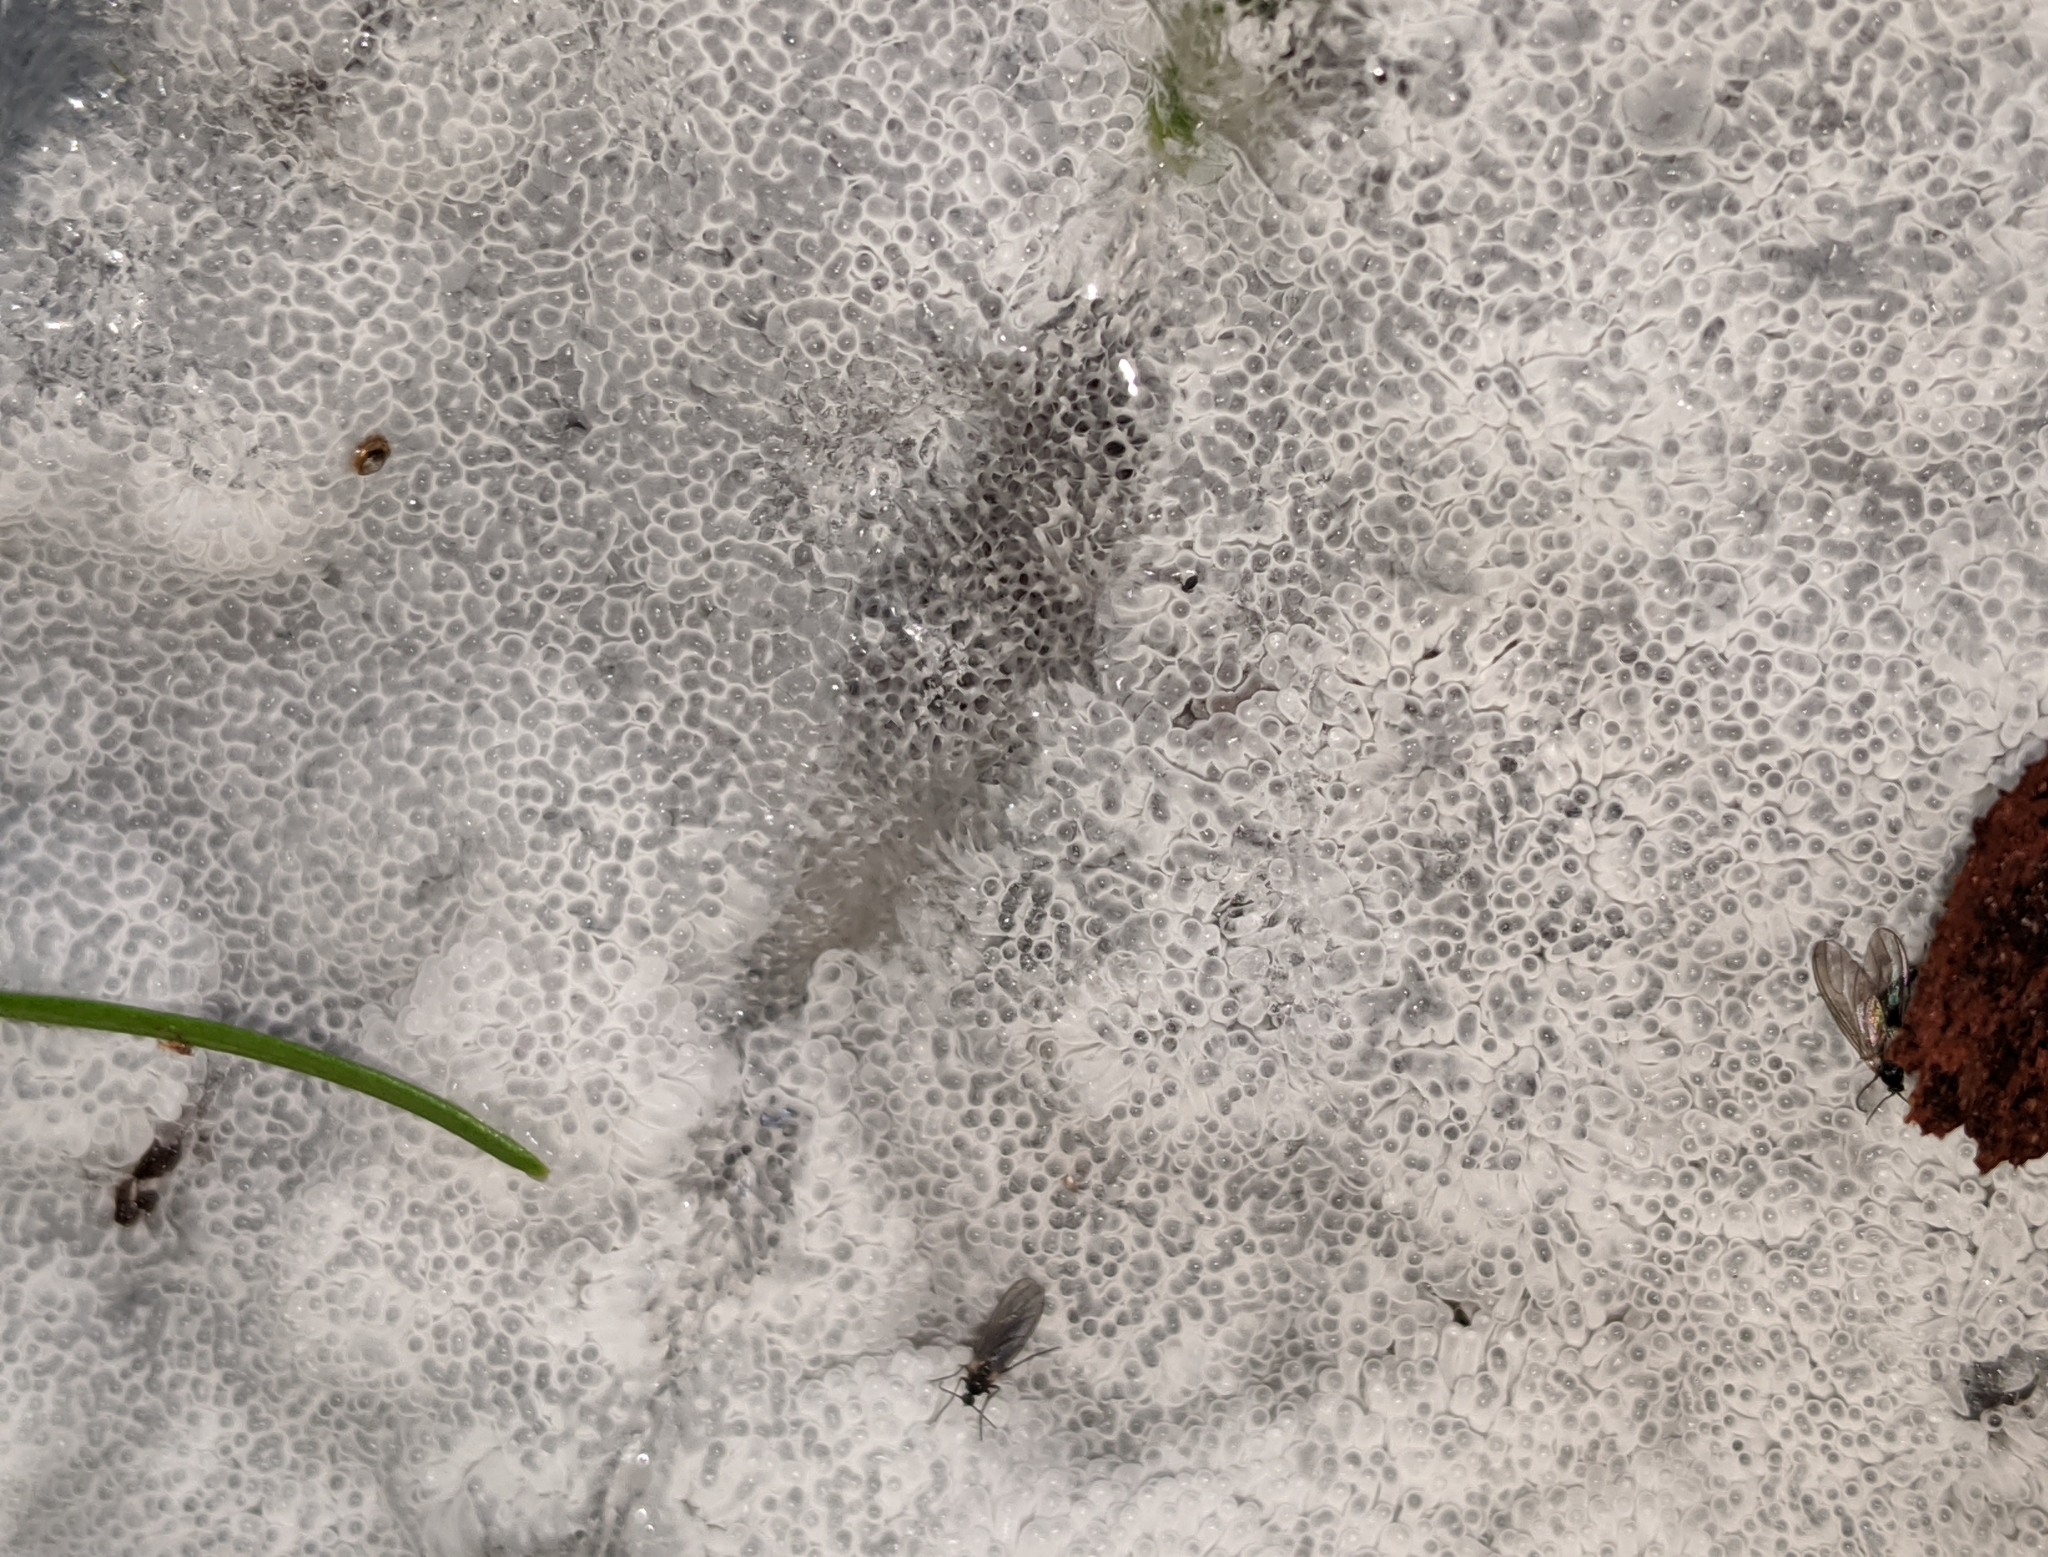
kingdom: Protozoa
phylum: Mycetozoa
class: Protosteliomycetes
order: Ceratiomyxales
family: Ceratiomyxaceae
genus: Ceratiomyxa
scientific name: Ceratiomyxa fruticulosa
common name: Honeycomb coral slime mold
